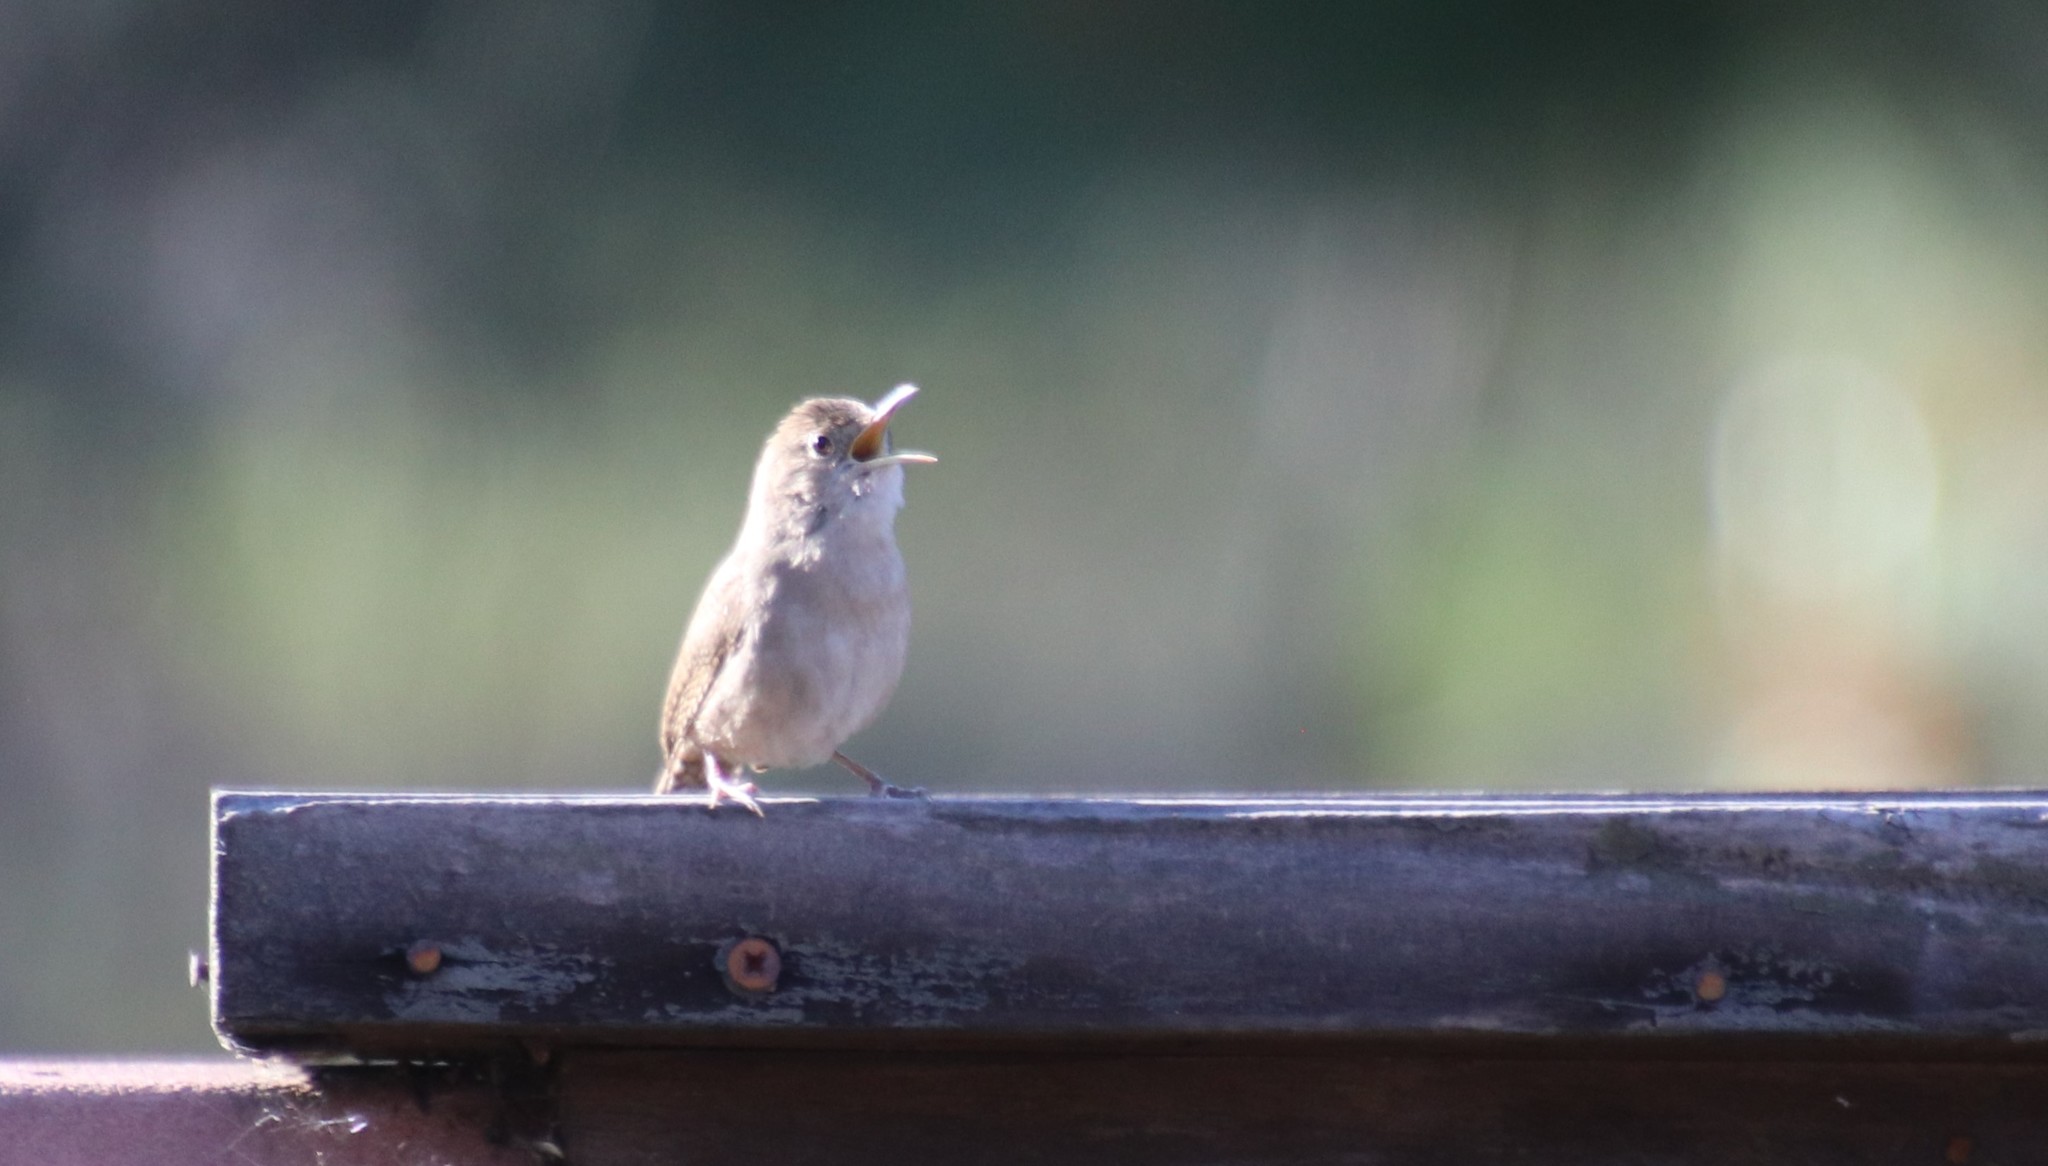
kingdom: Animalia
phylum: Chordata
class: Aves
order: Passeriformes
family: Troglodytidae
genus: Troglodytes
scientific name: Troglodytes aedon
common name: House wren
